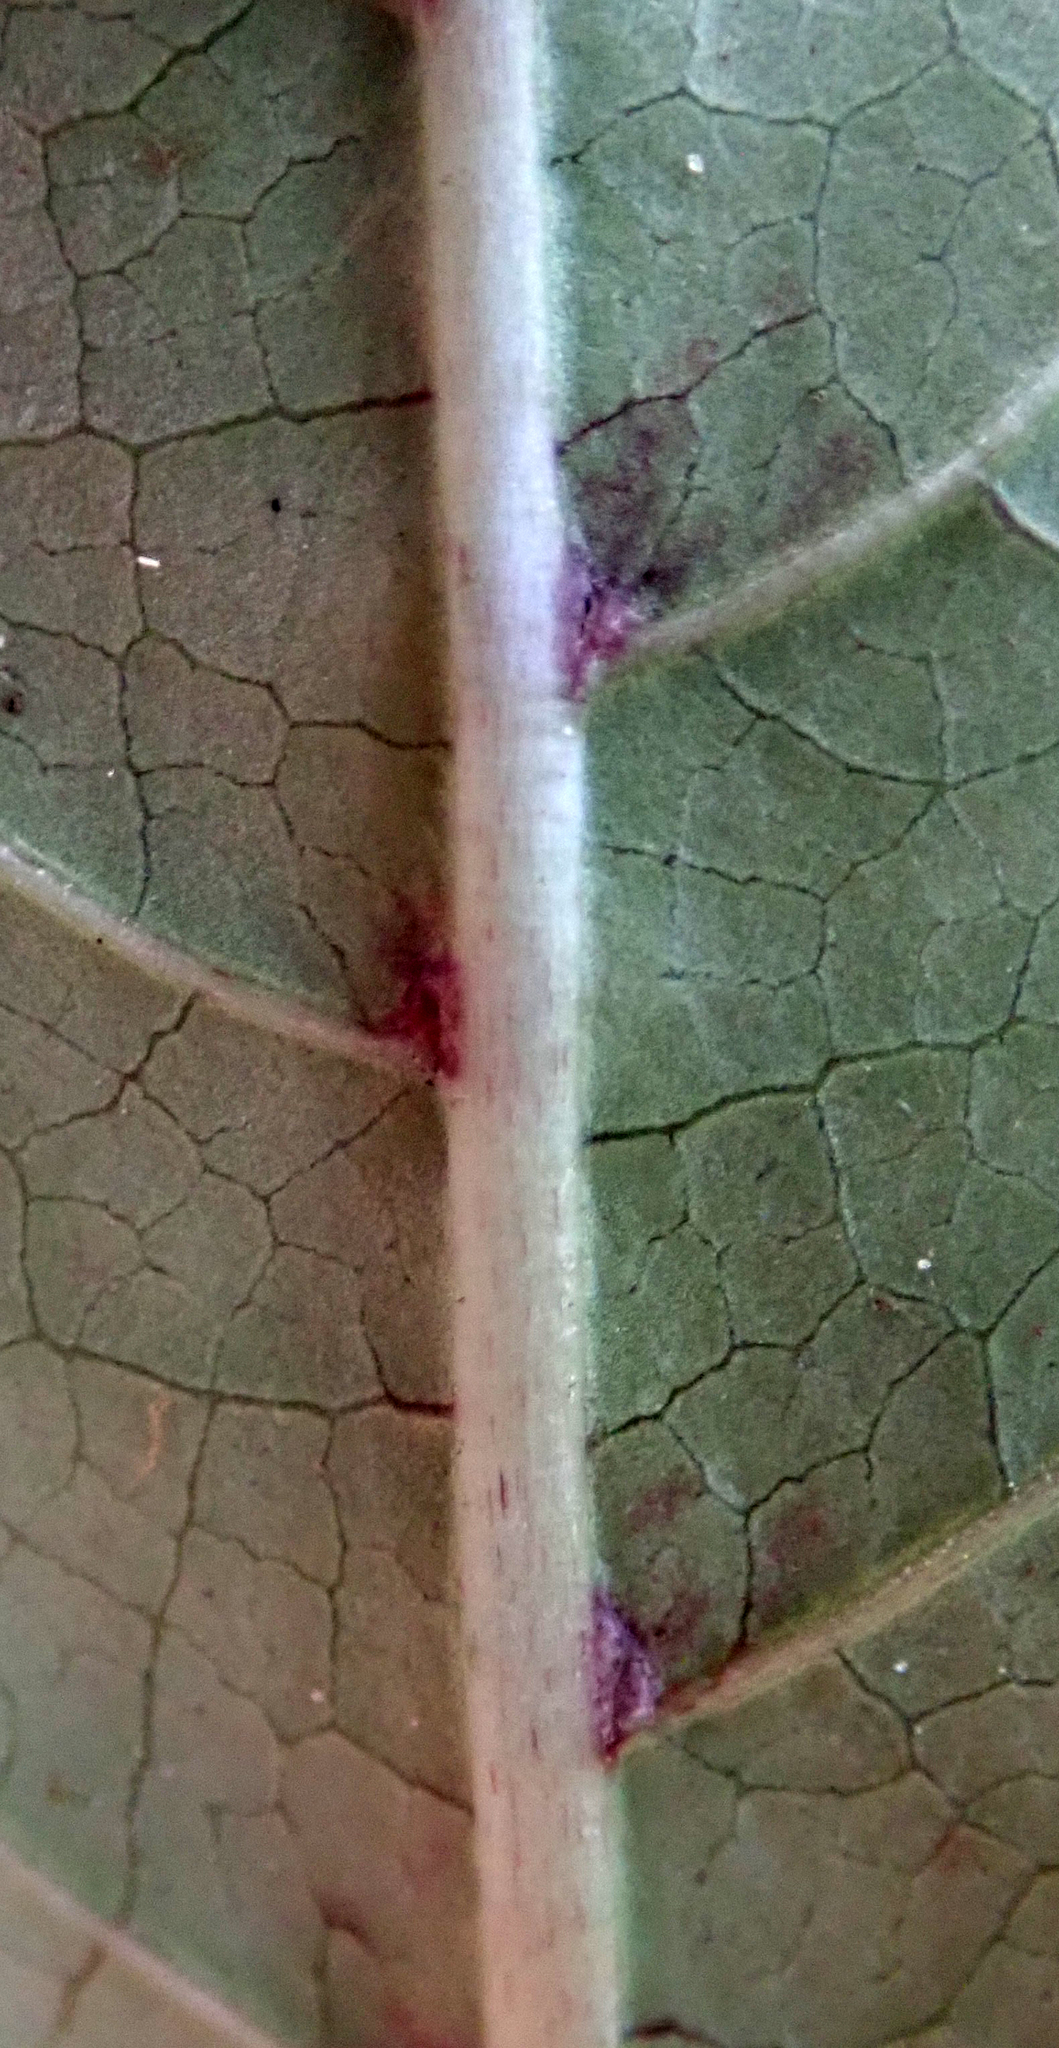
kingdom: Plantae
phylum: Tracheophyta
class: Magnoliopsida
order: Gentianales
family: Rubiaceae
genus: Coprosma
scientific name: Coprosma autumnalis
